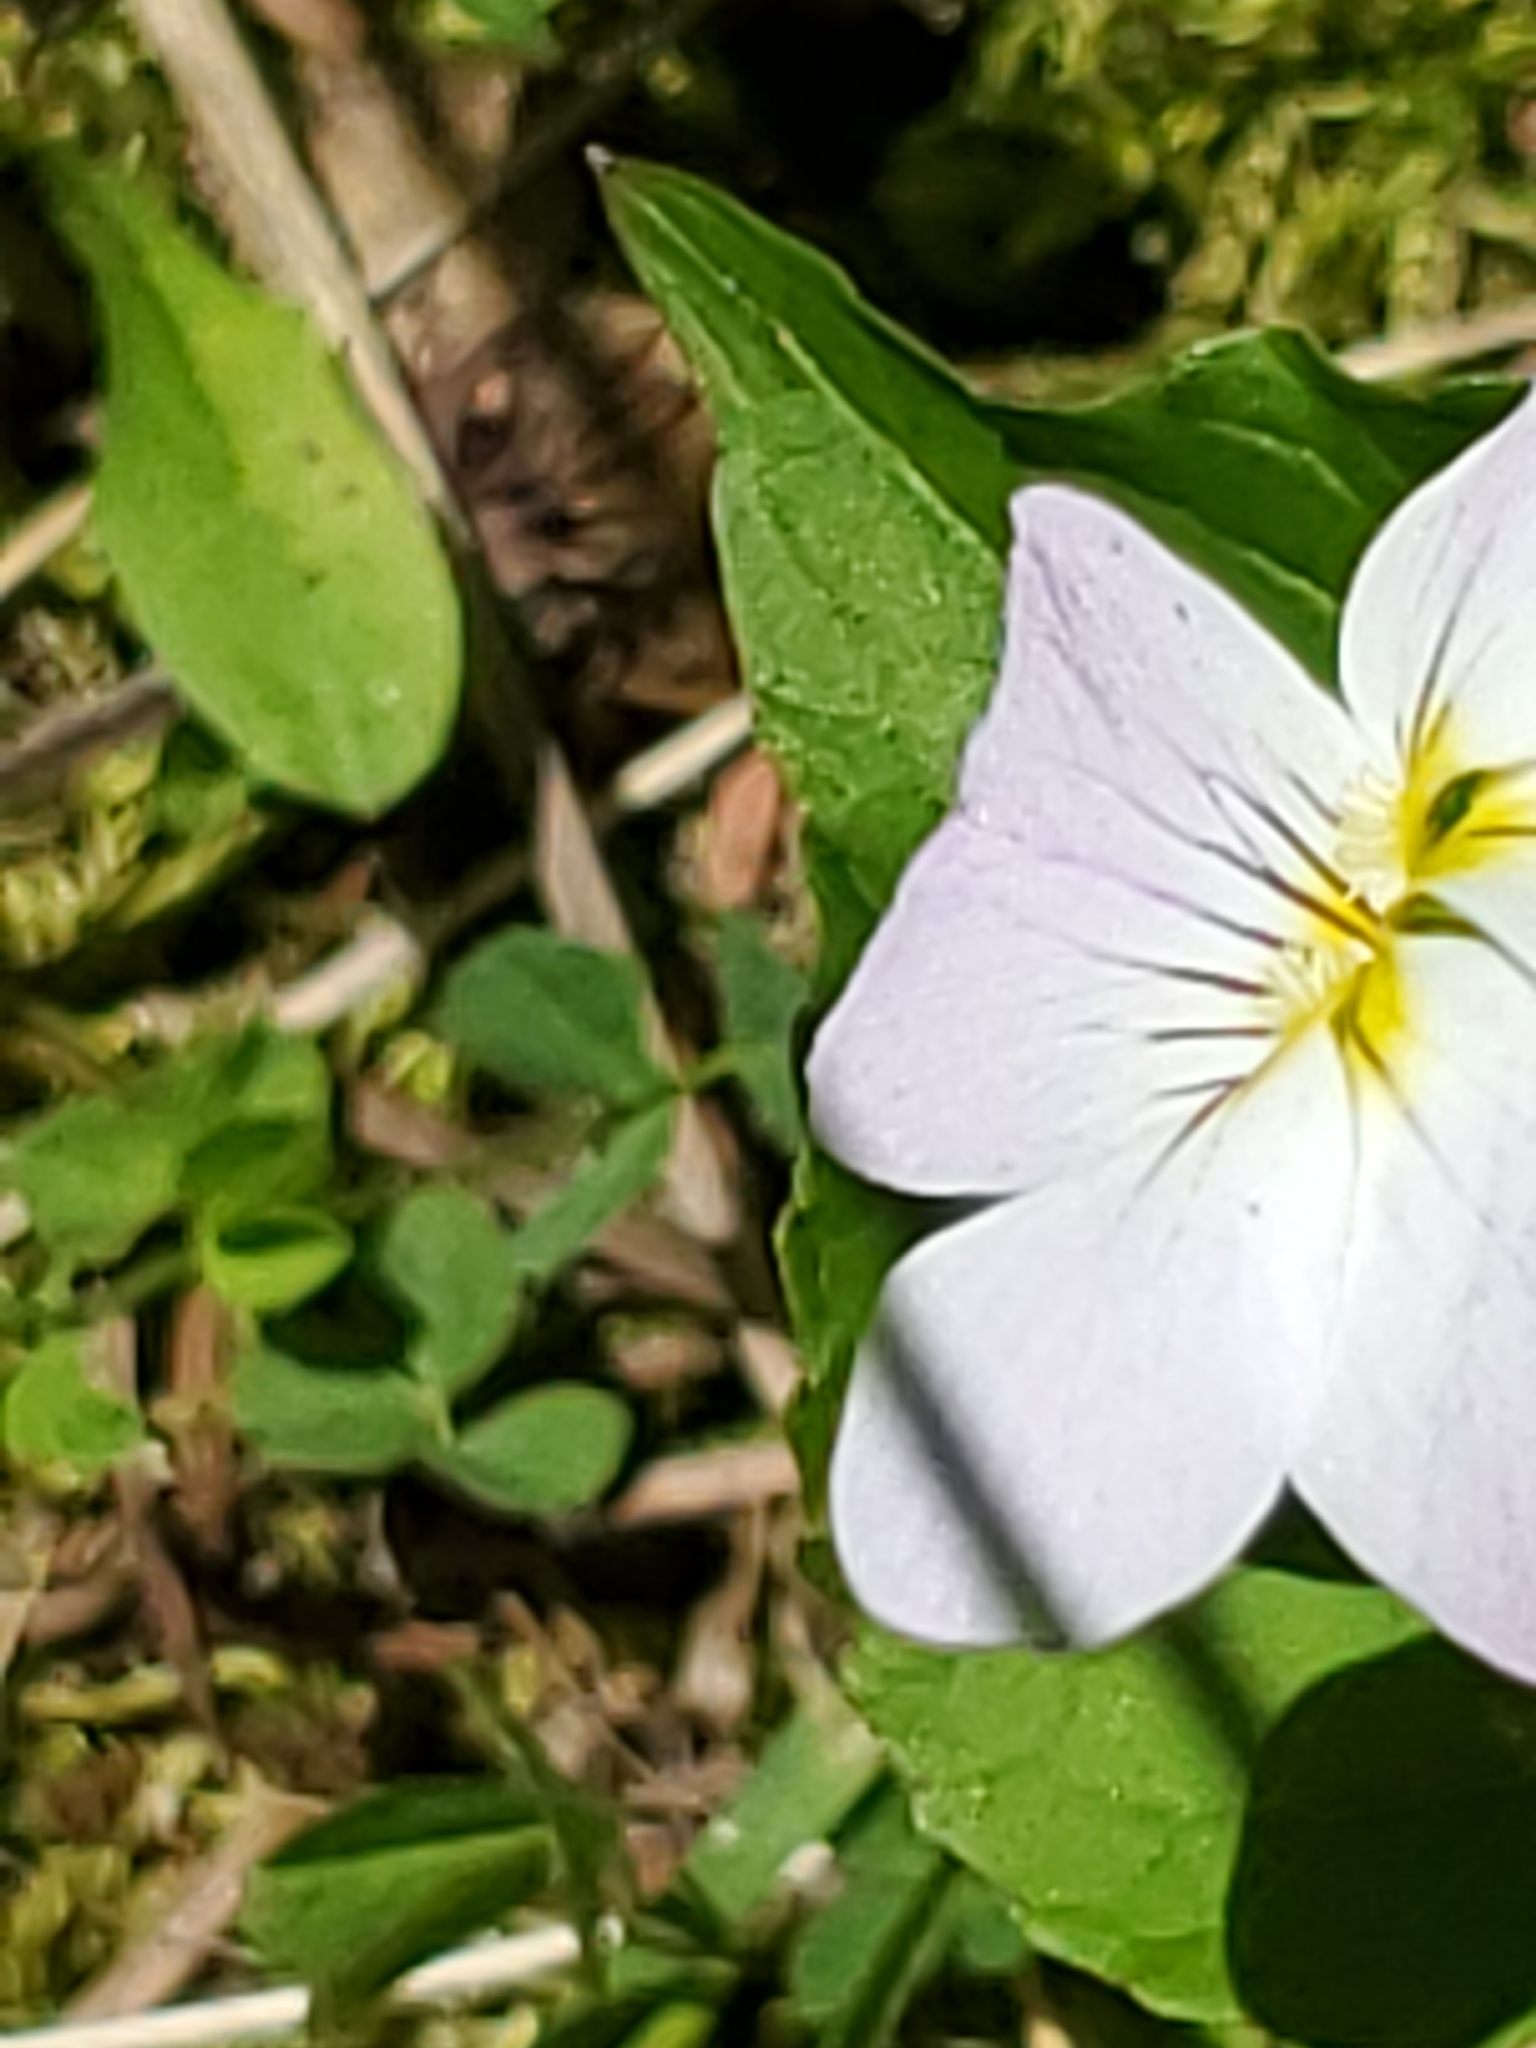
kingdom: Plantae
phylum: Tracheophyta
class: Magnoliopsida
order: Malpighiales
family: Violaceae
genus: Viola
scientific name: Viola canadensis
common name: Canada violet
